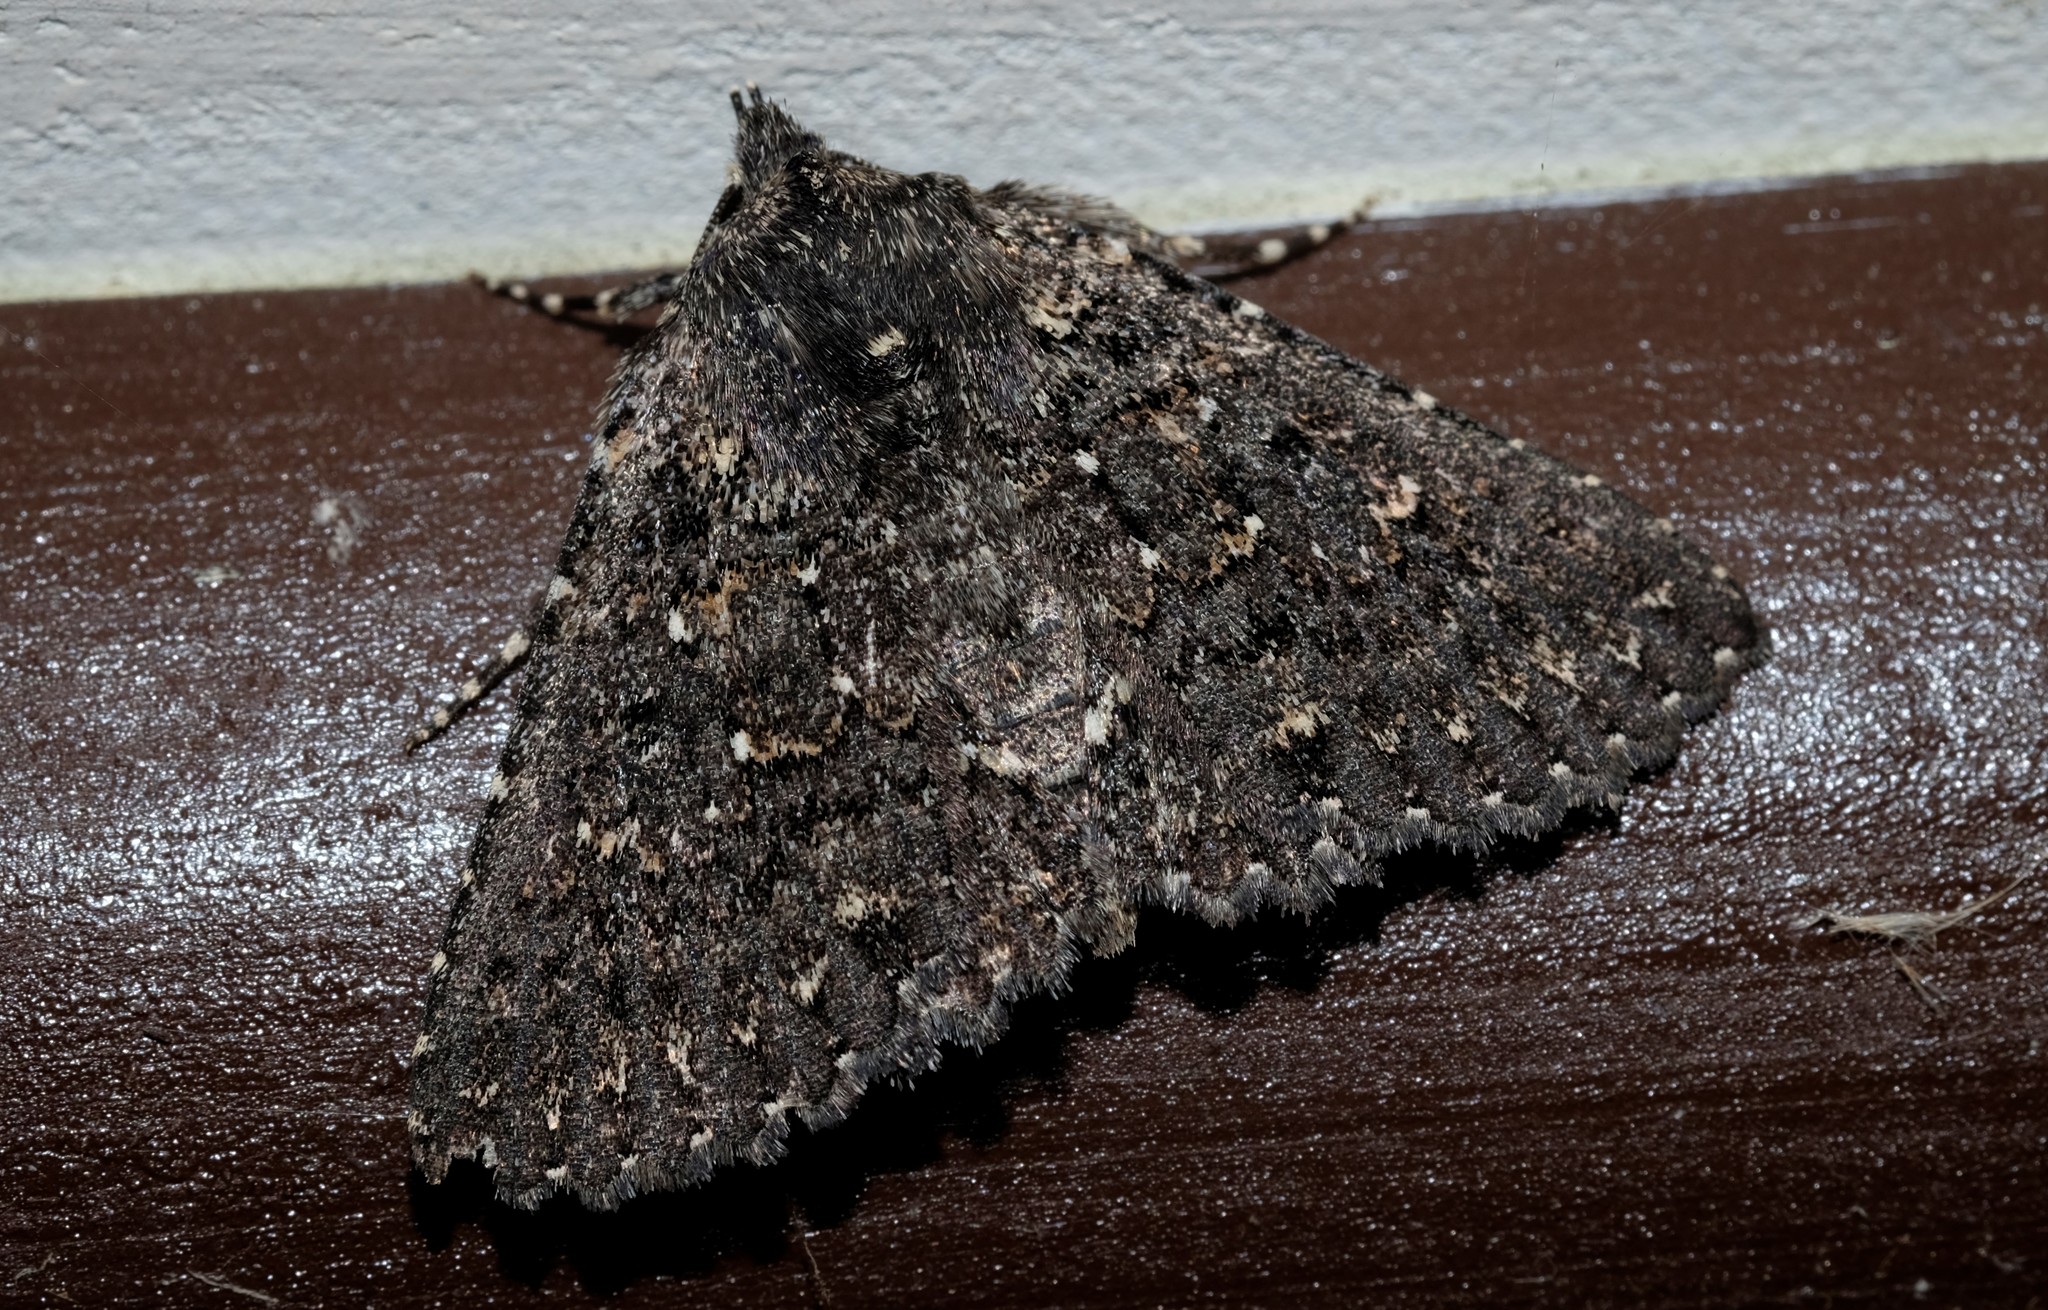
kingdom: Animalia
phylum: Arthropoda
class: Insecta
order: Lepidoptera
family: Erebidae
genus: Praxis
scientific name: Praxis edwardsii
